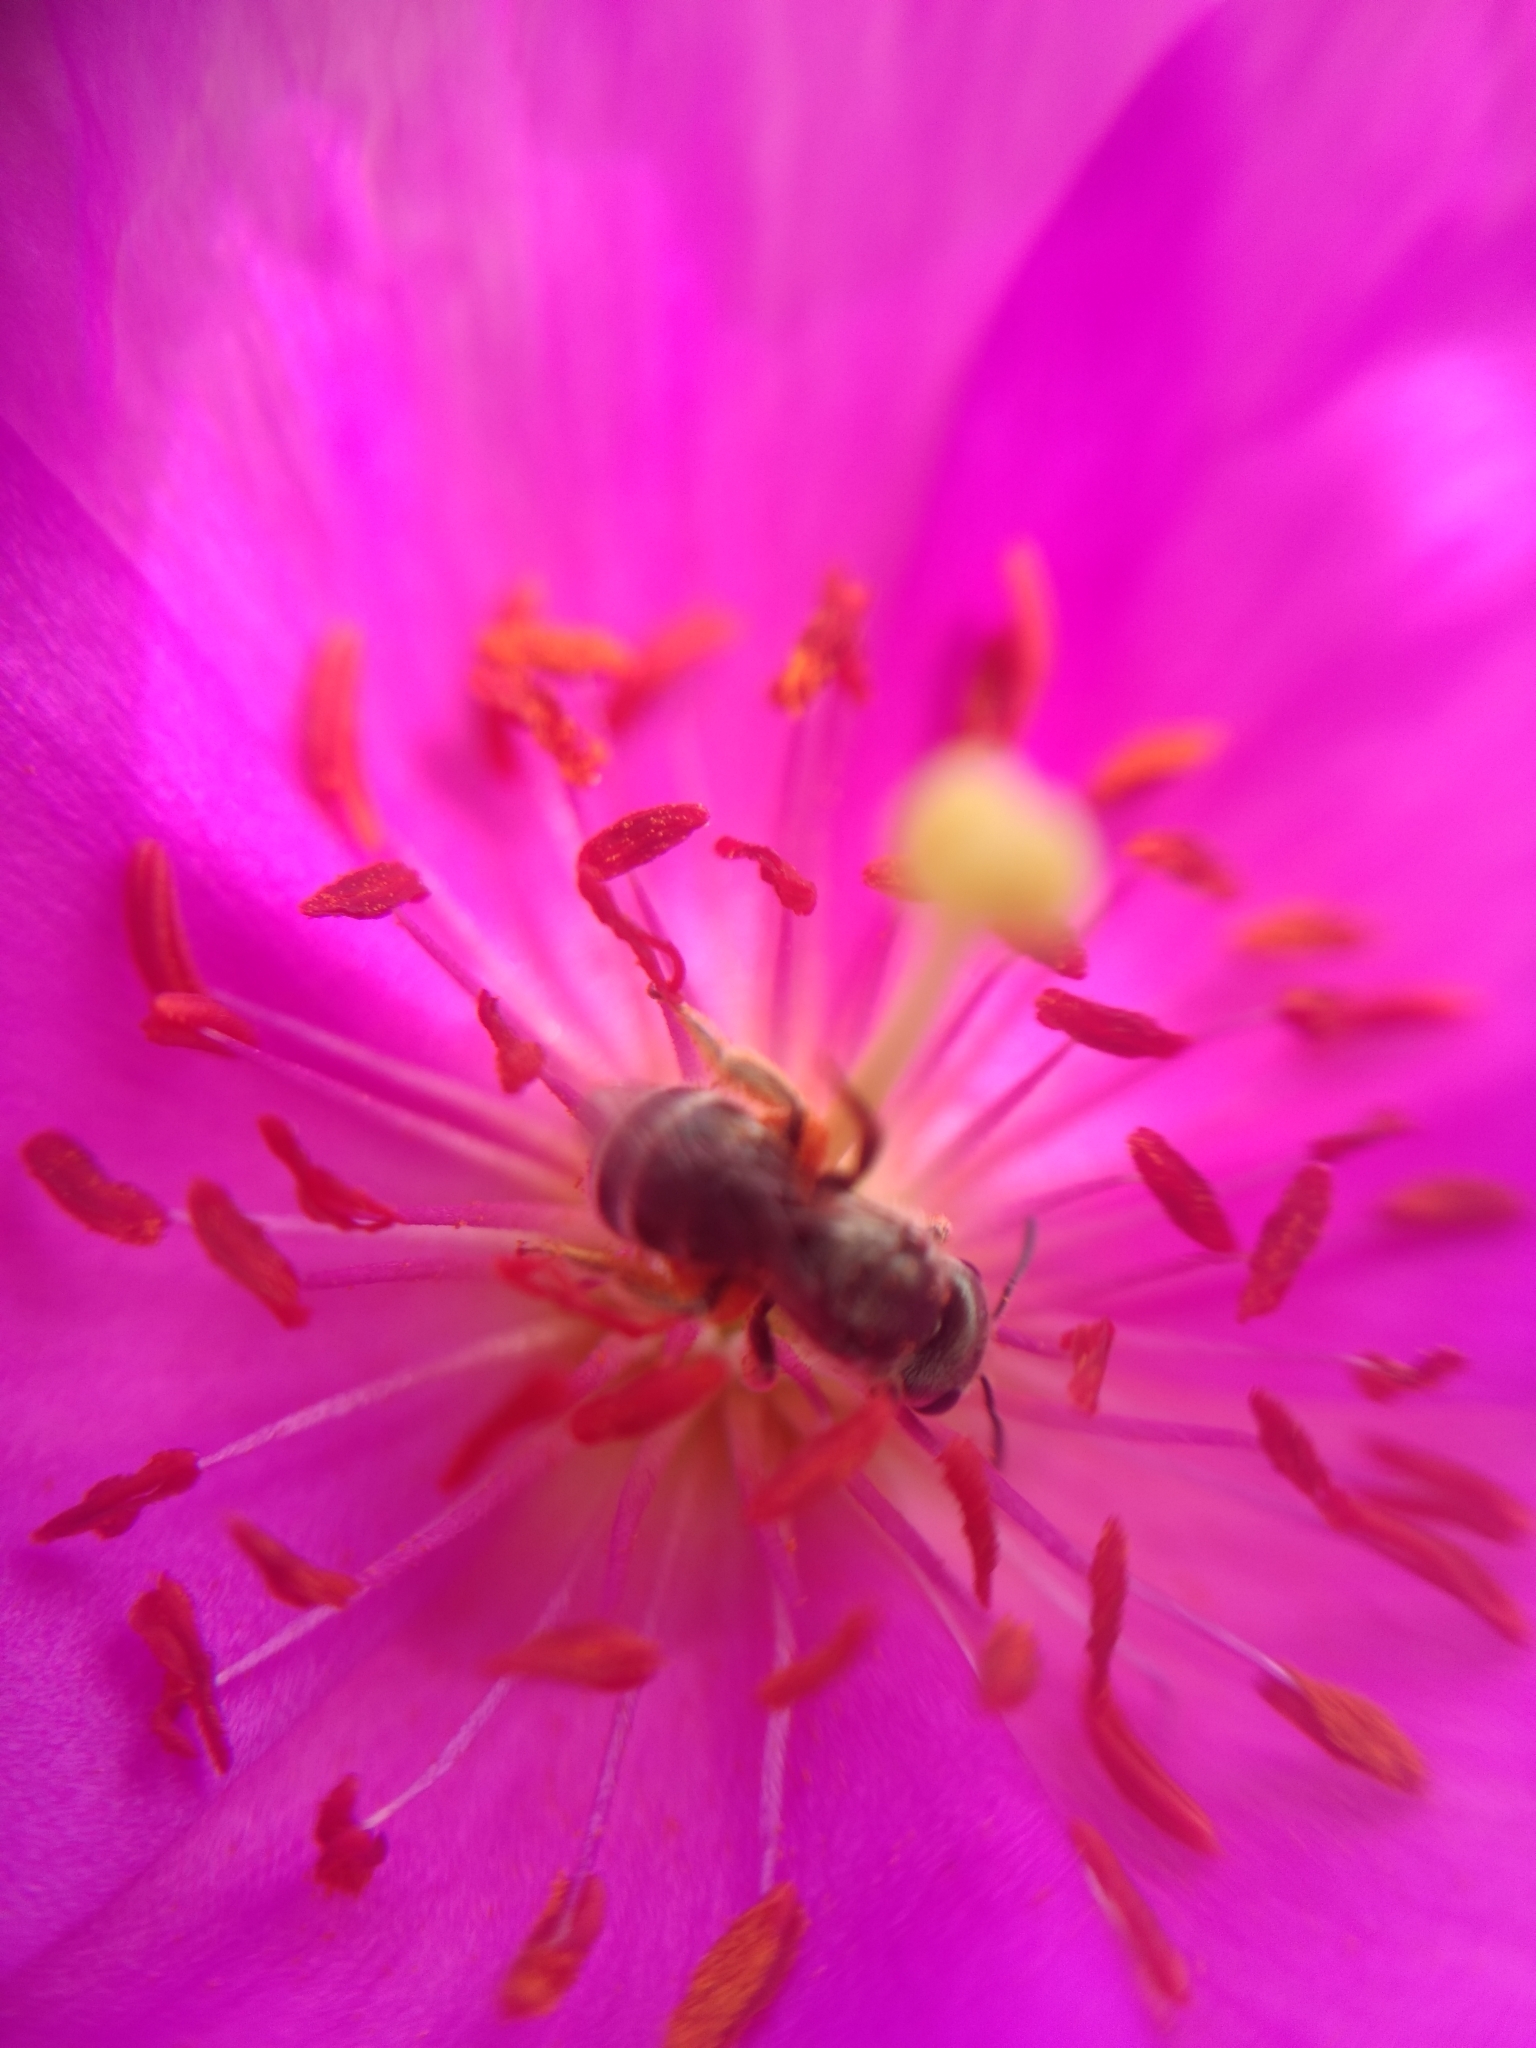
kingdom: Animalia
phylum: Arthropoda
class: Insecta
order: Hymenoptera
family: Halictidae
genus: Halictus
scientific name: Halictus tripartitus
